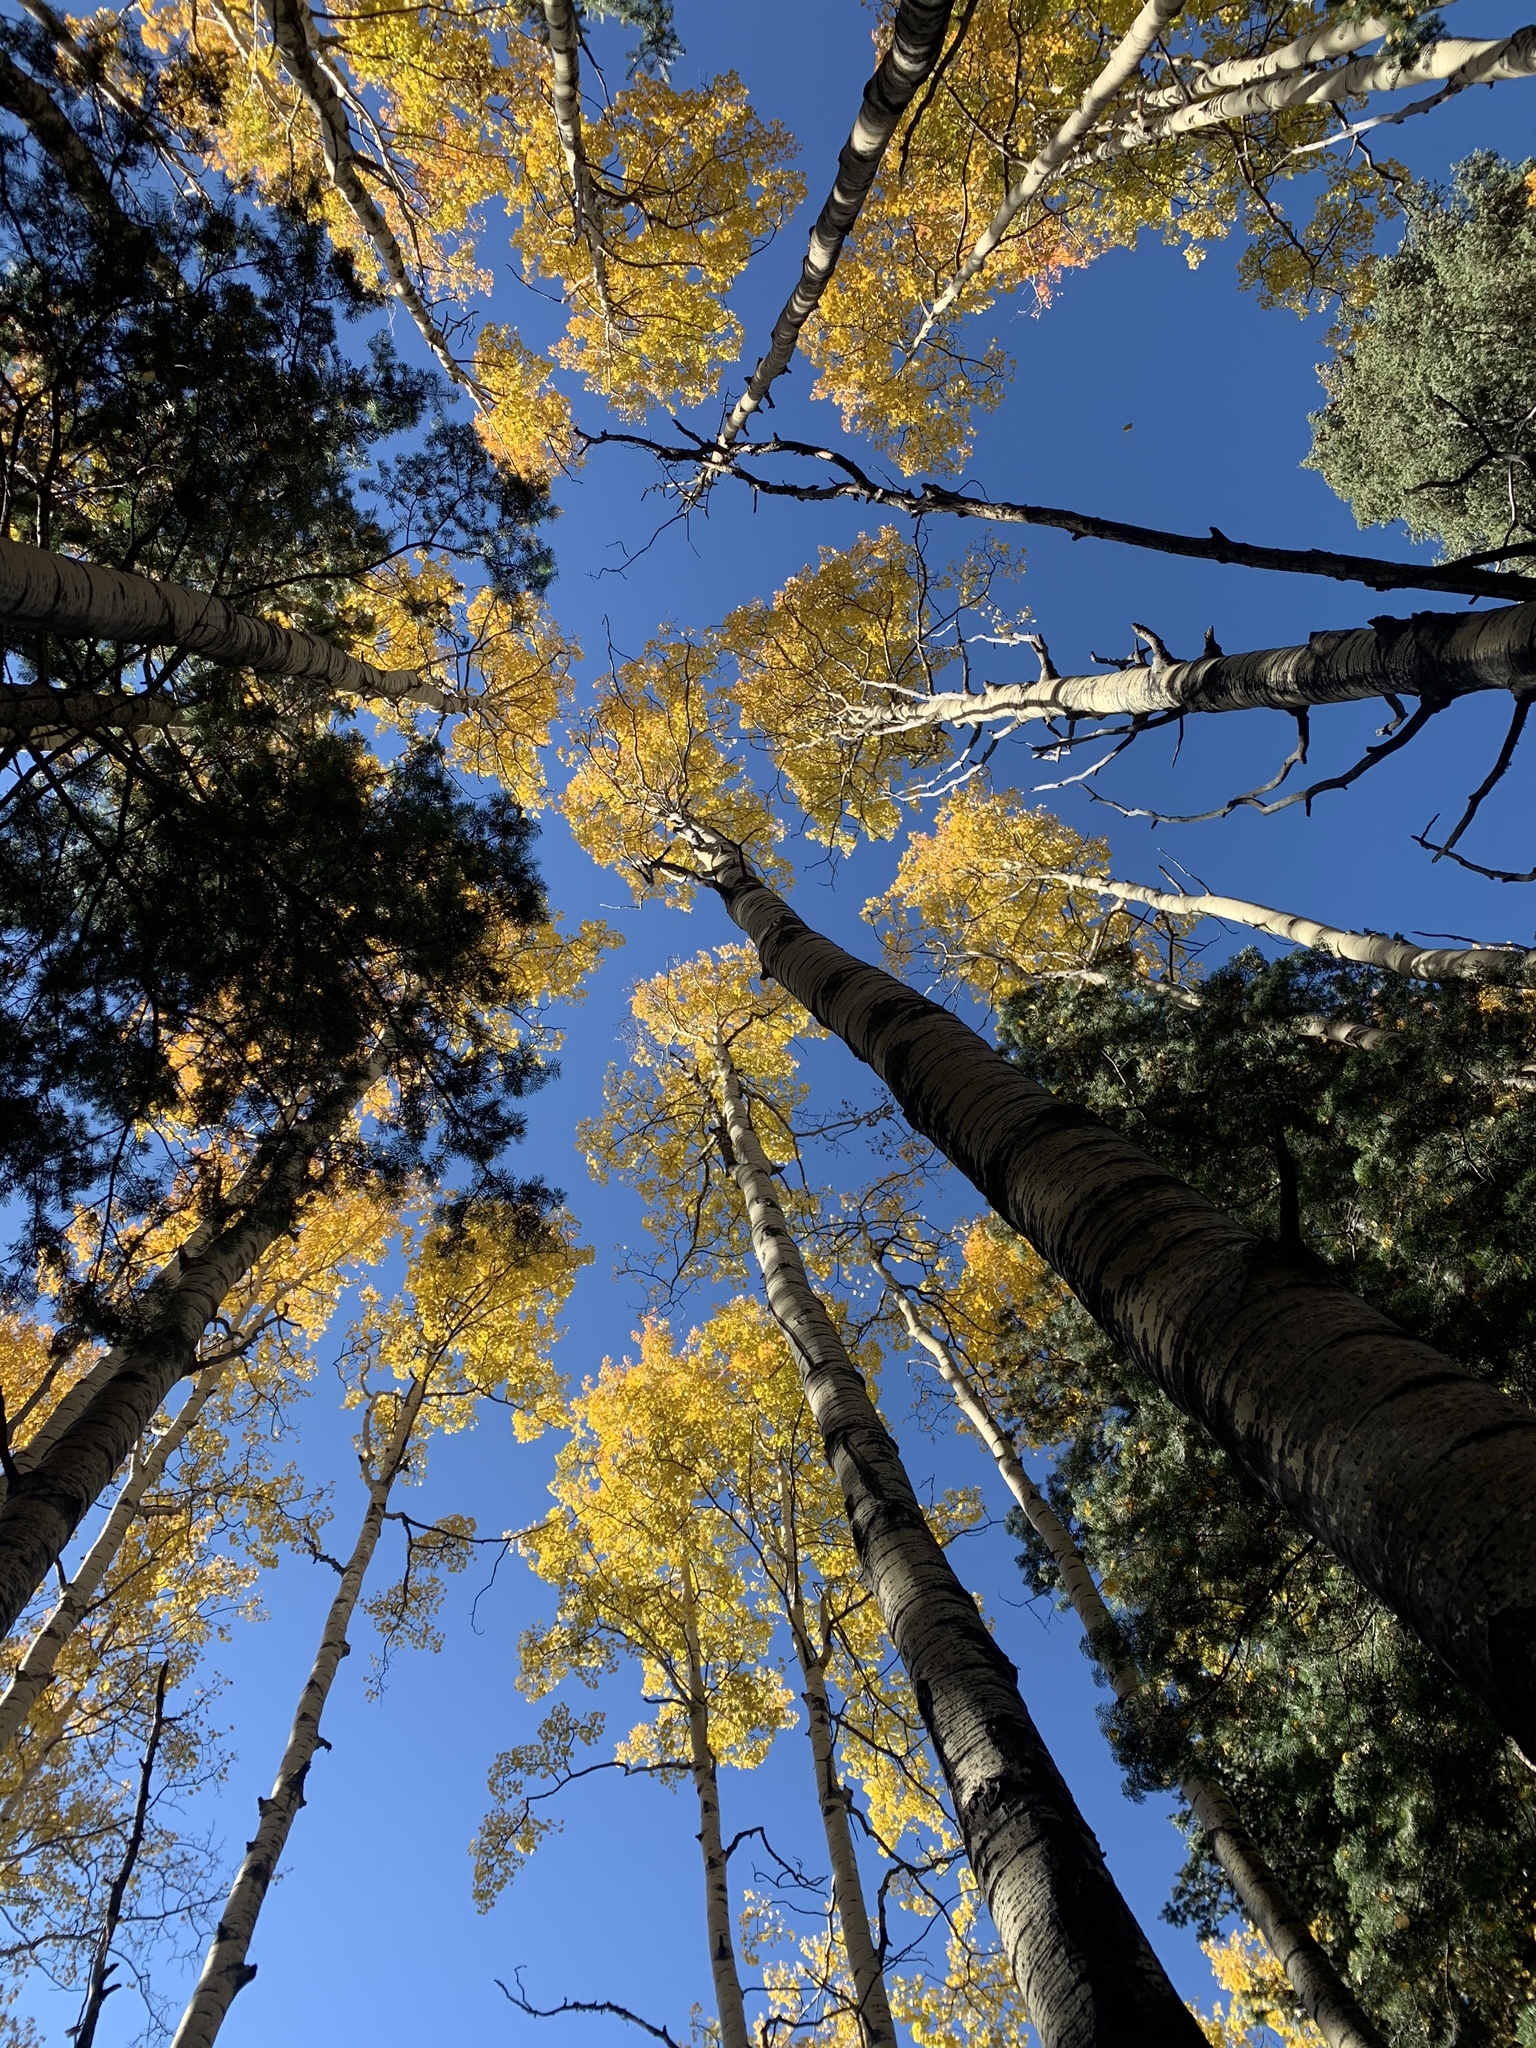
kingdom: Plantae
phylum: Tracheophyta
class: Magnoliopsida
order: Malpighiales
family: Salicaceae
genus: Populus
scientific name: Populus tremuloides
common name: Quaking aspen
